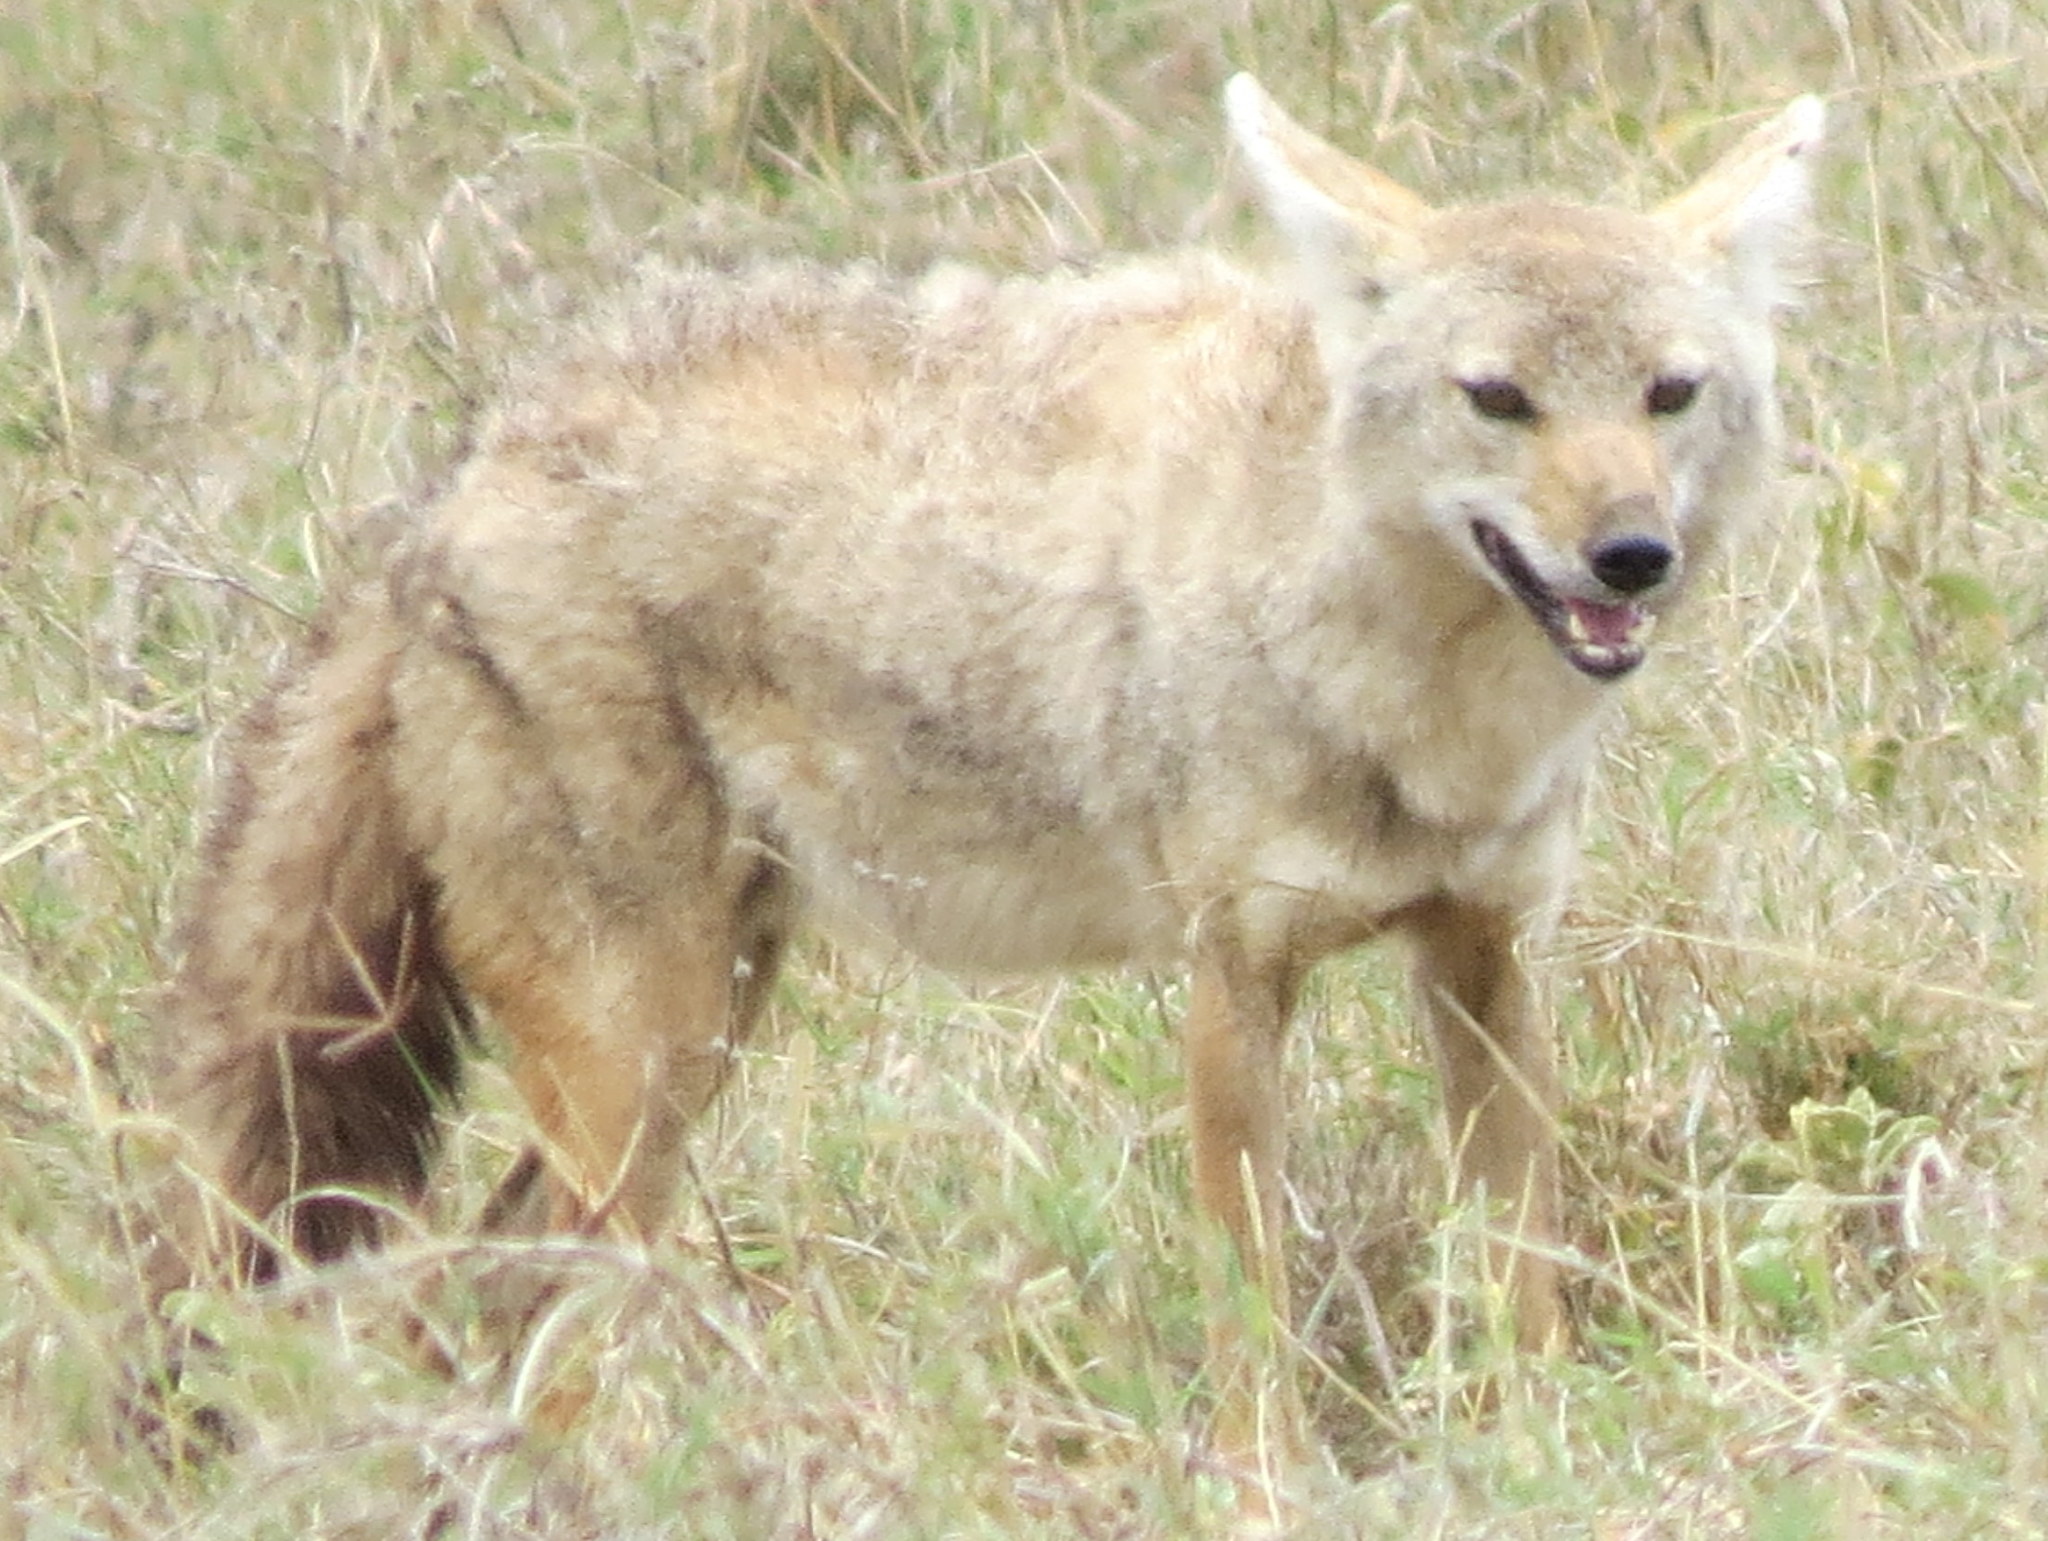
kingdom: Animalia
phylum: Chordata
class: Mammalia
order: Carnivora
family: Canidae
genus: Canis
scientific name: Canis lupaster
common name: African golden wolf
